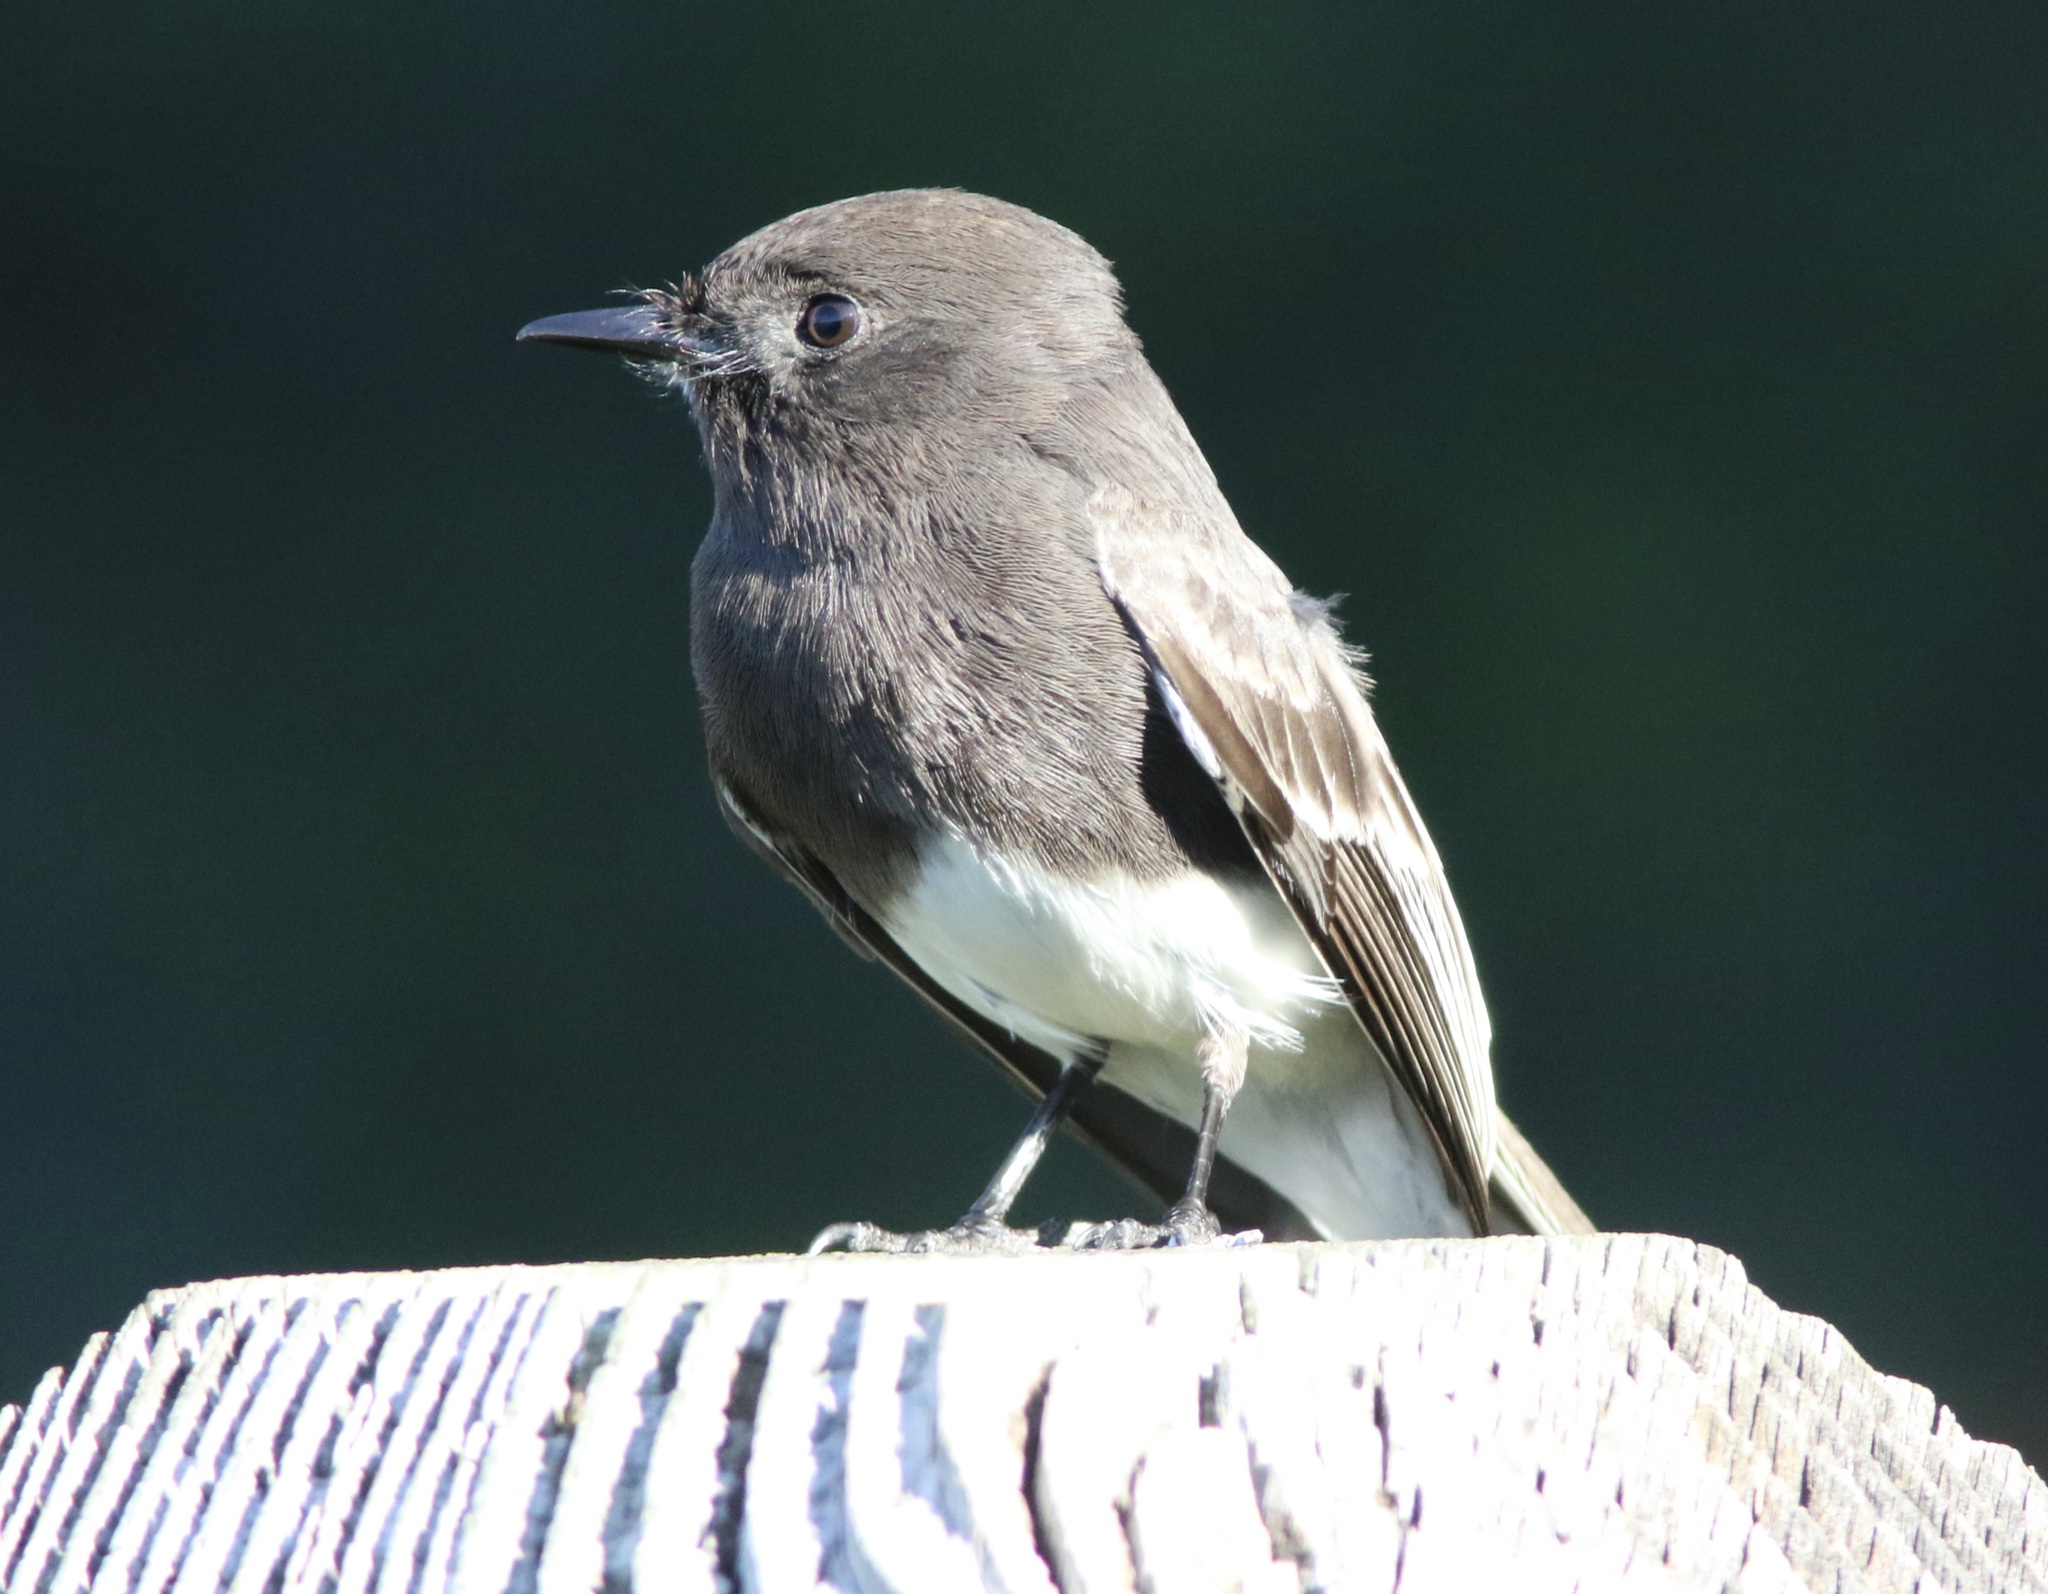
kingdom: Animalia
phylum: Chordata
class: Aves
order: Passeriformes
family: Tyrannidae
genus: Sayornis
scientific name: Sayornis nigricans
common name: Black phoebe
